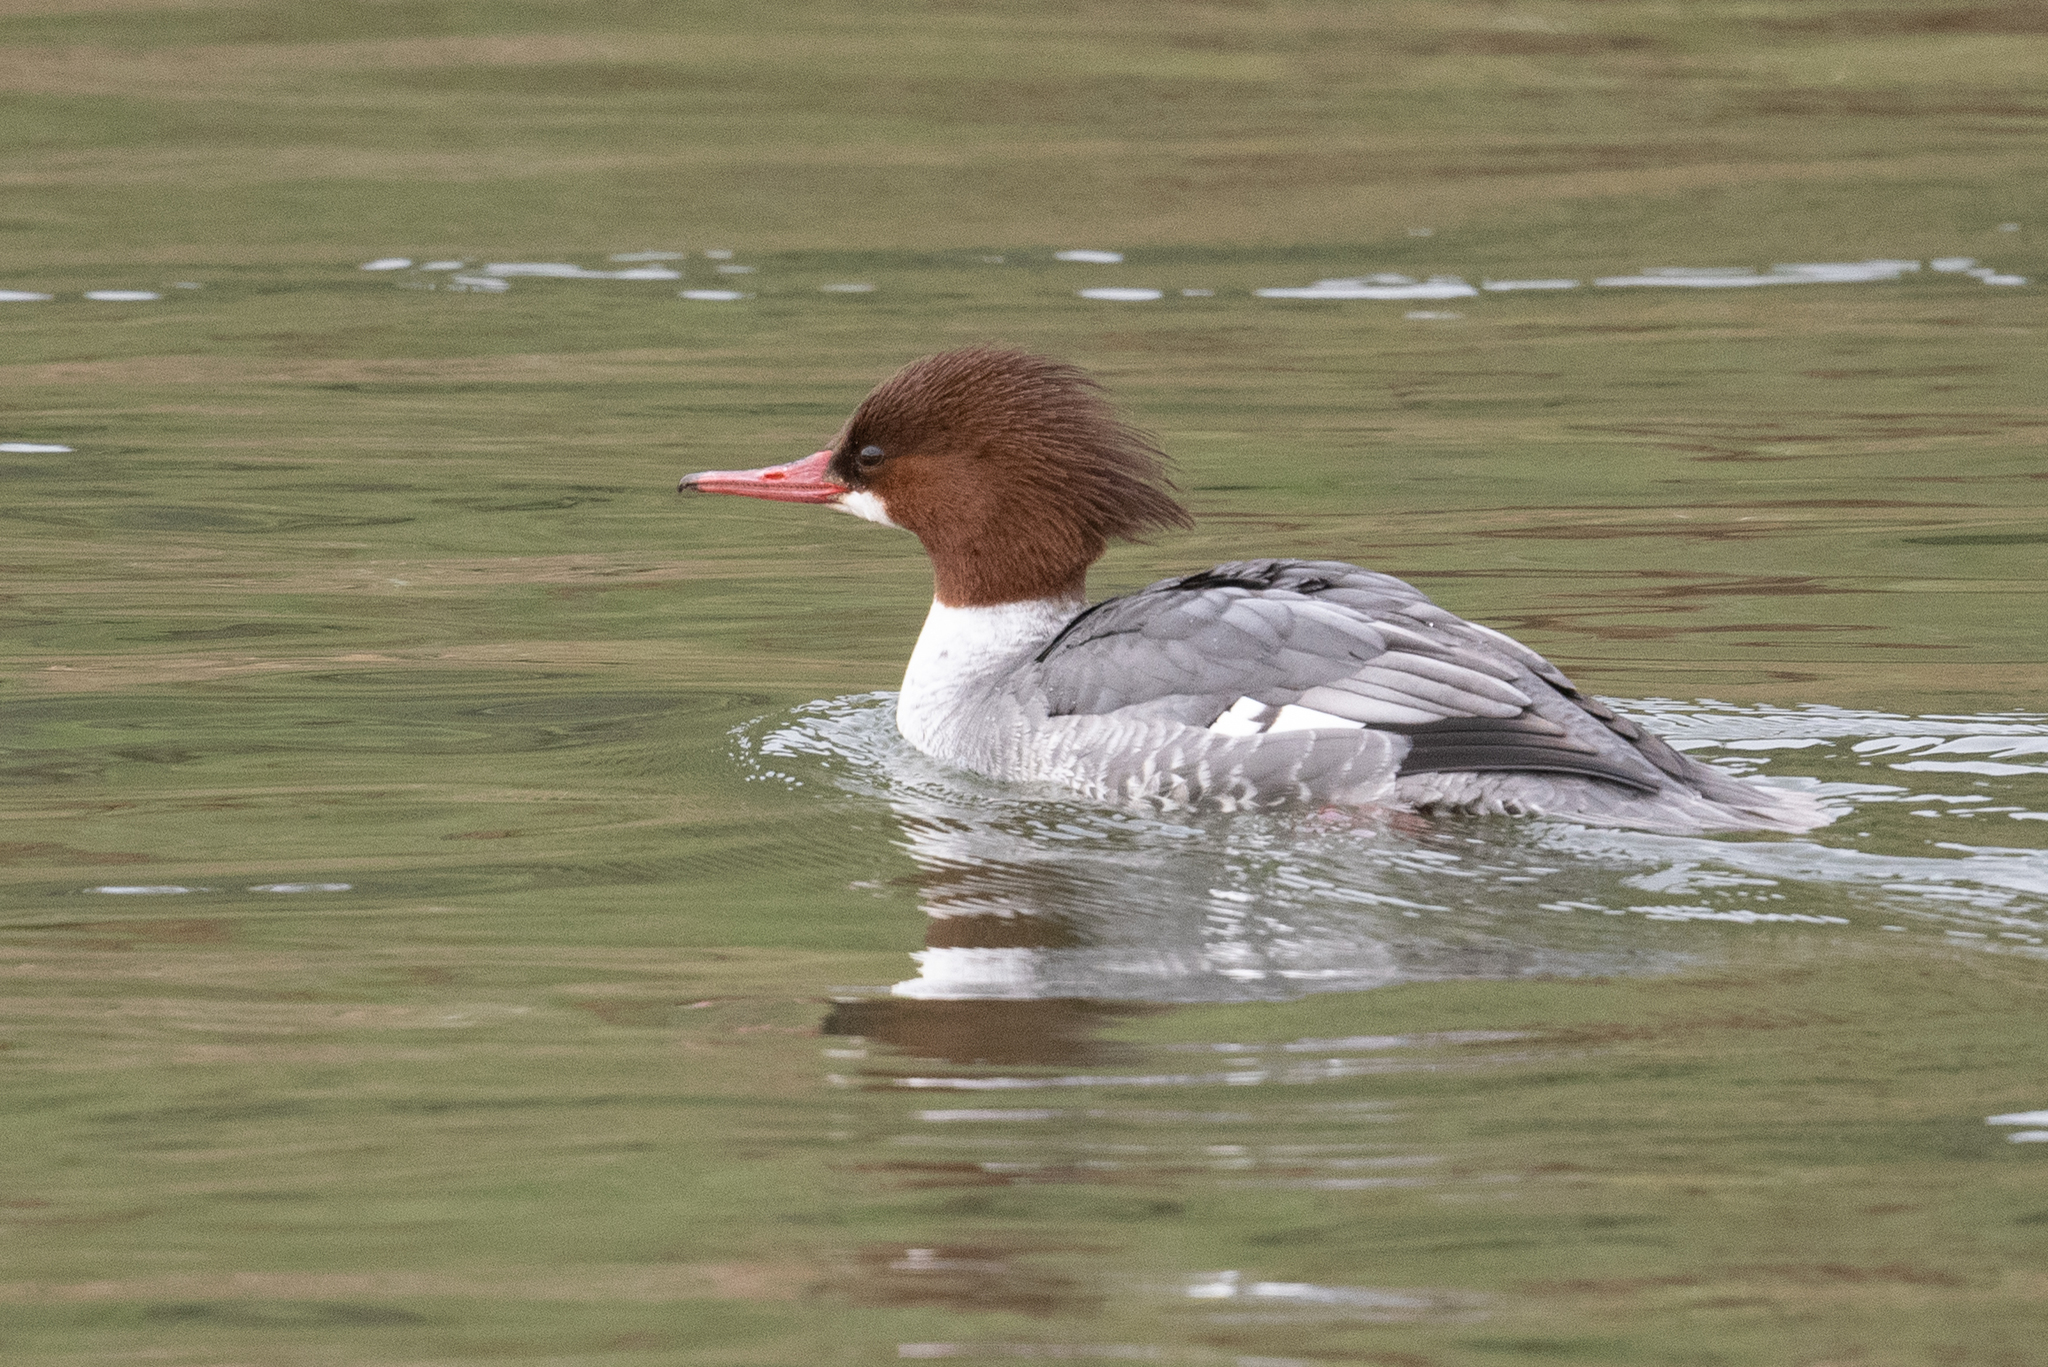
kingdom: Animalia
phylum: Chordata
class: Aves
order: Anseriformes
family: Anatidae
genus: Mergus
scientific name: Mergus merganser
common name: Common merganser
